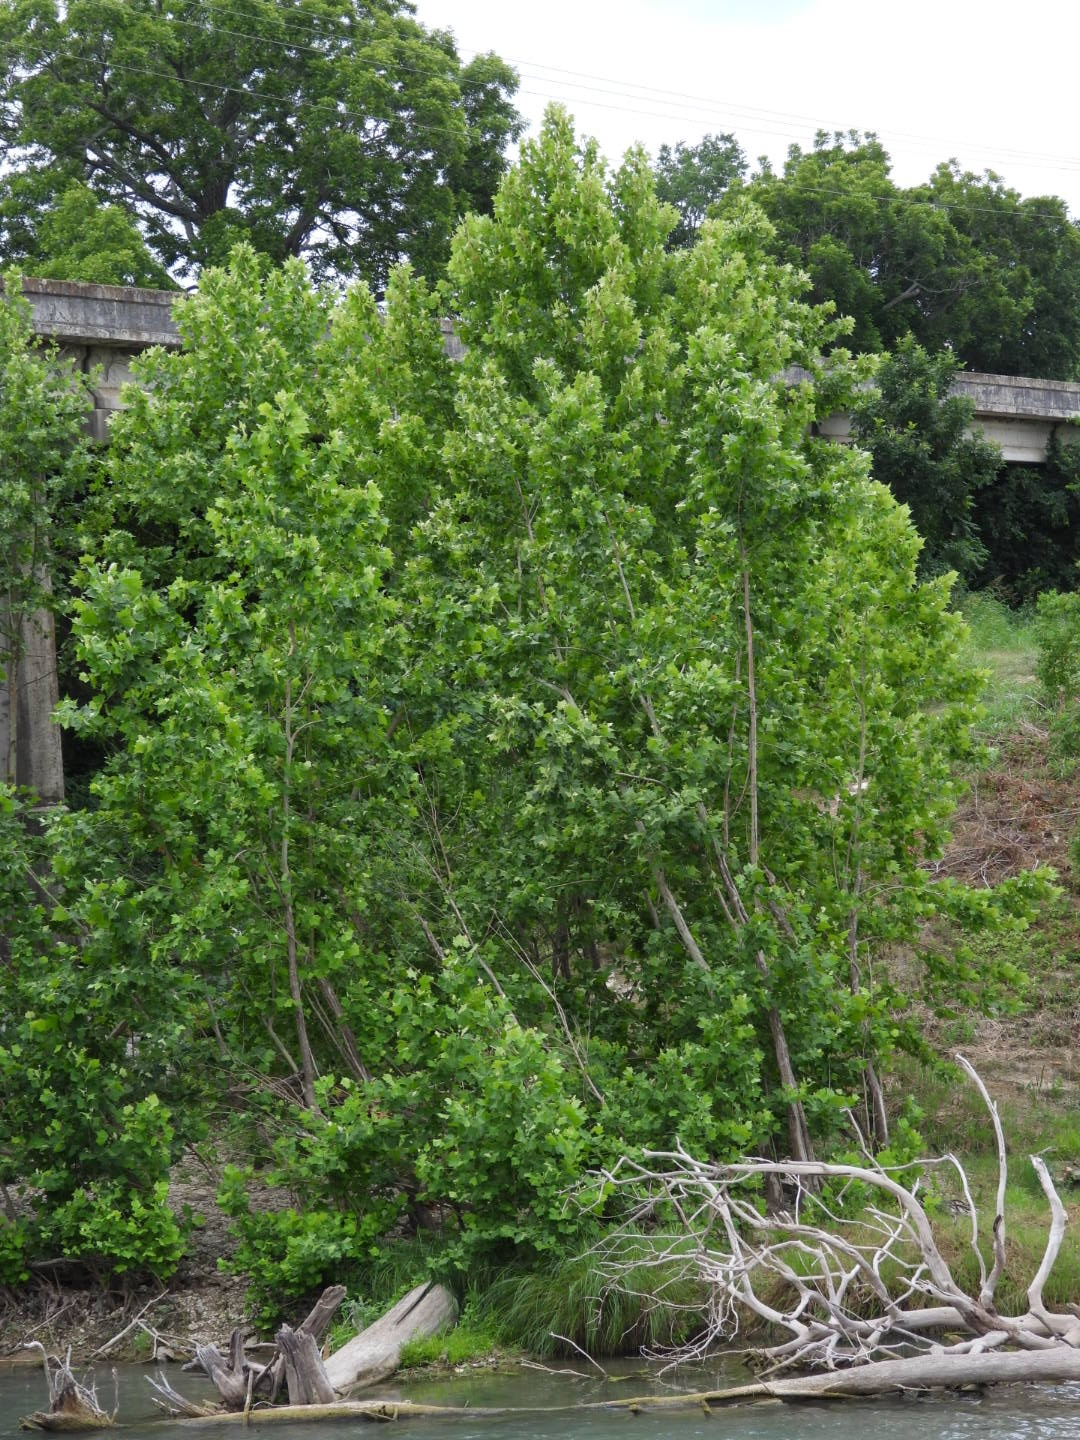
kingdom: Plantae
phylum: Tracheophyta
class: Magnoliopsida
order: Proteales
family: Platanaceae
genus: Platanus
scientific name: Platanus occidentalis
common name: American sycamore
